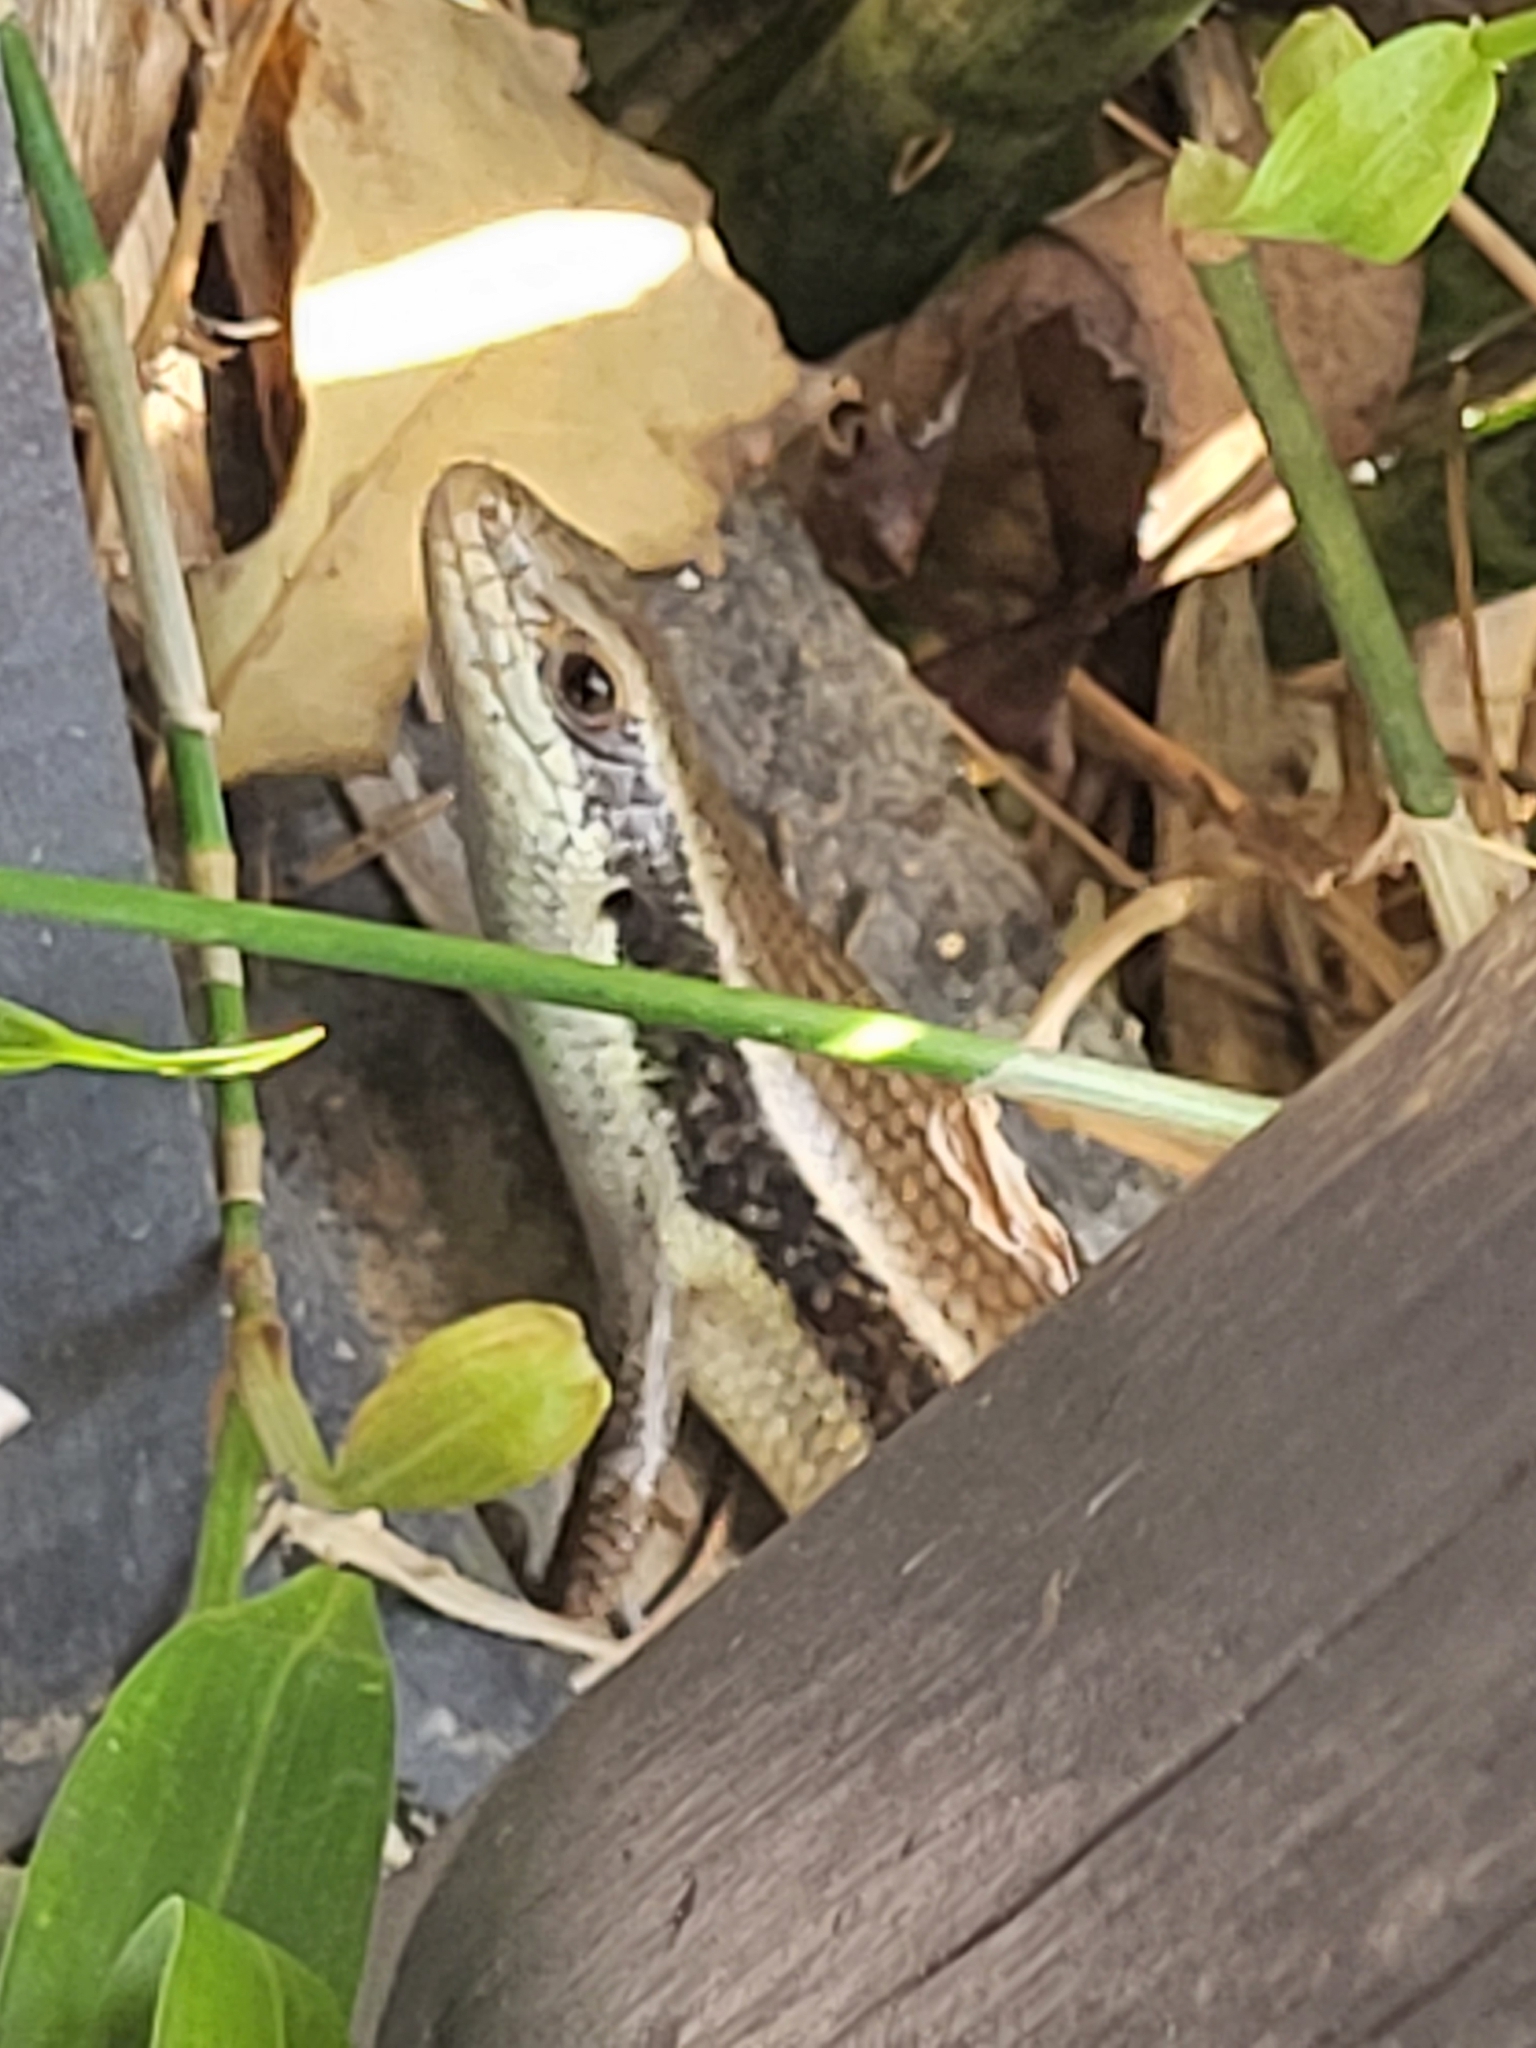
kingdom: Animalia
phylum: Chordata
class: Squamata
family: Scincidae
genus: Eutropis
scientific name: Eutropis longicaudata
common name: Long-tailed sun skink
